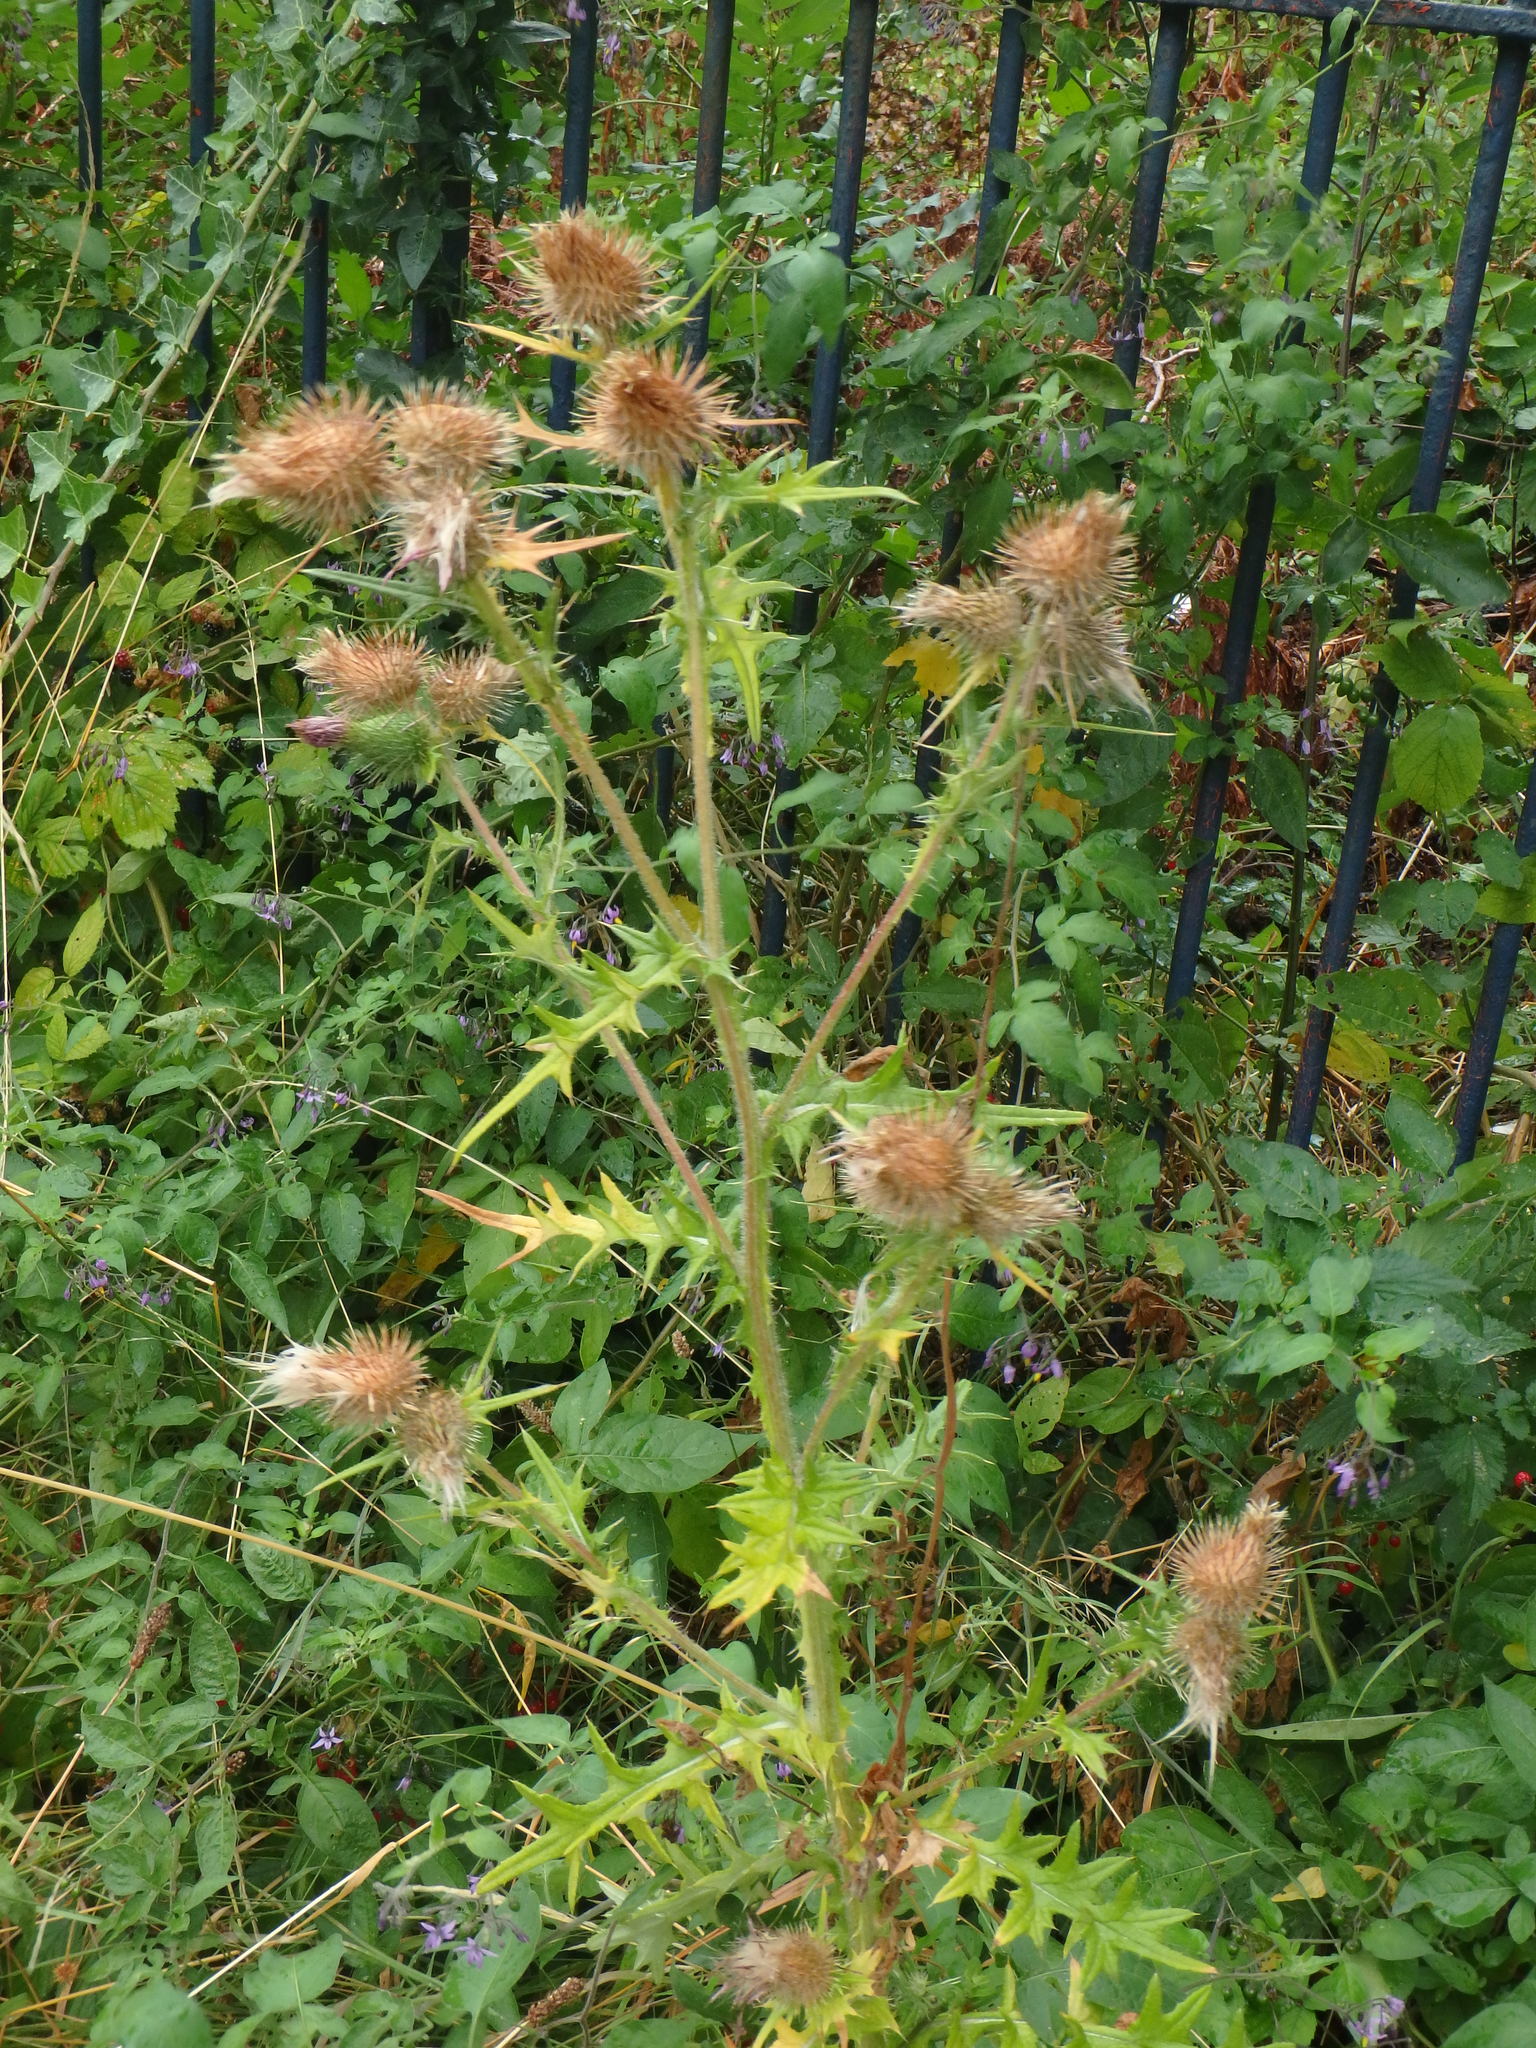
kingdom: Plantae
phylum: Tracheophyta
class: Magnoliopsida
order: Asterales
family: Asteraceae
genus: Cirsium
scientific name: Cirsium vulgare
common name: Bull thistle
